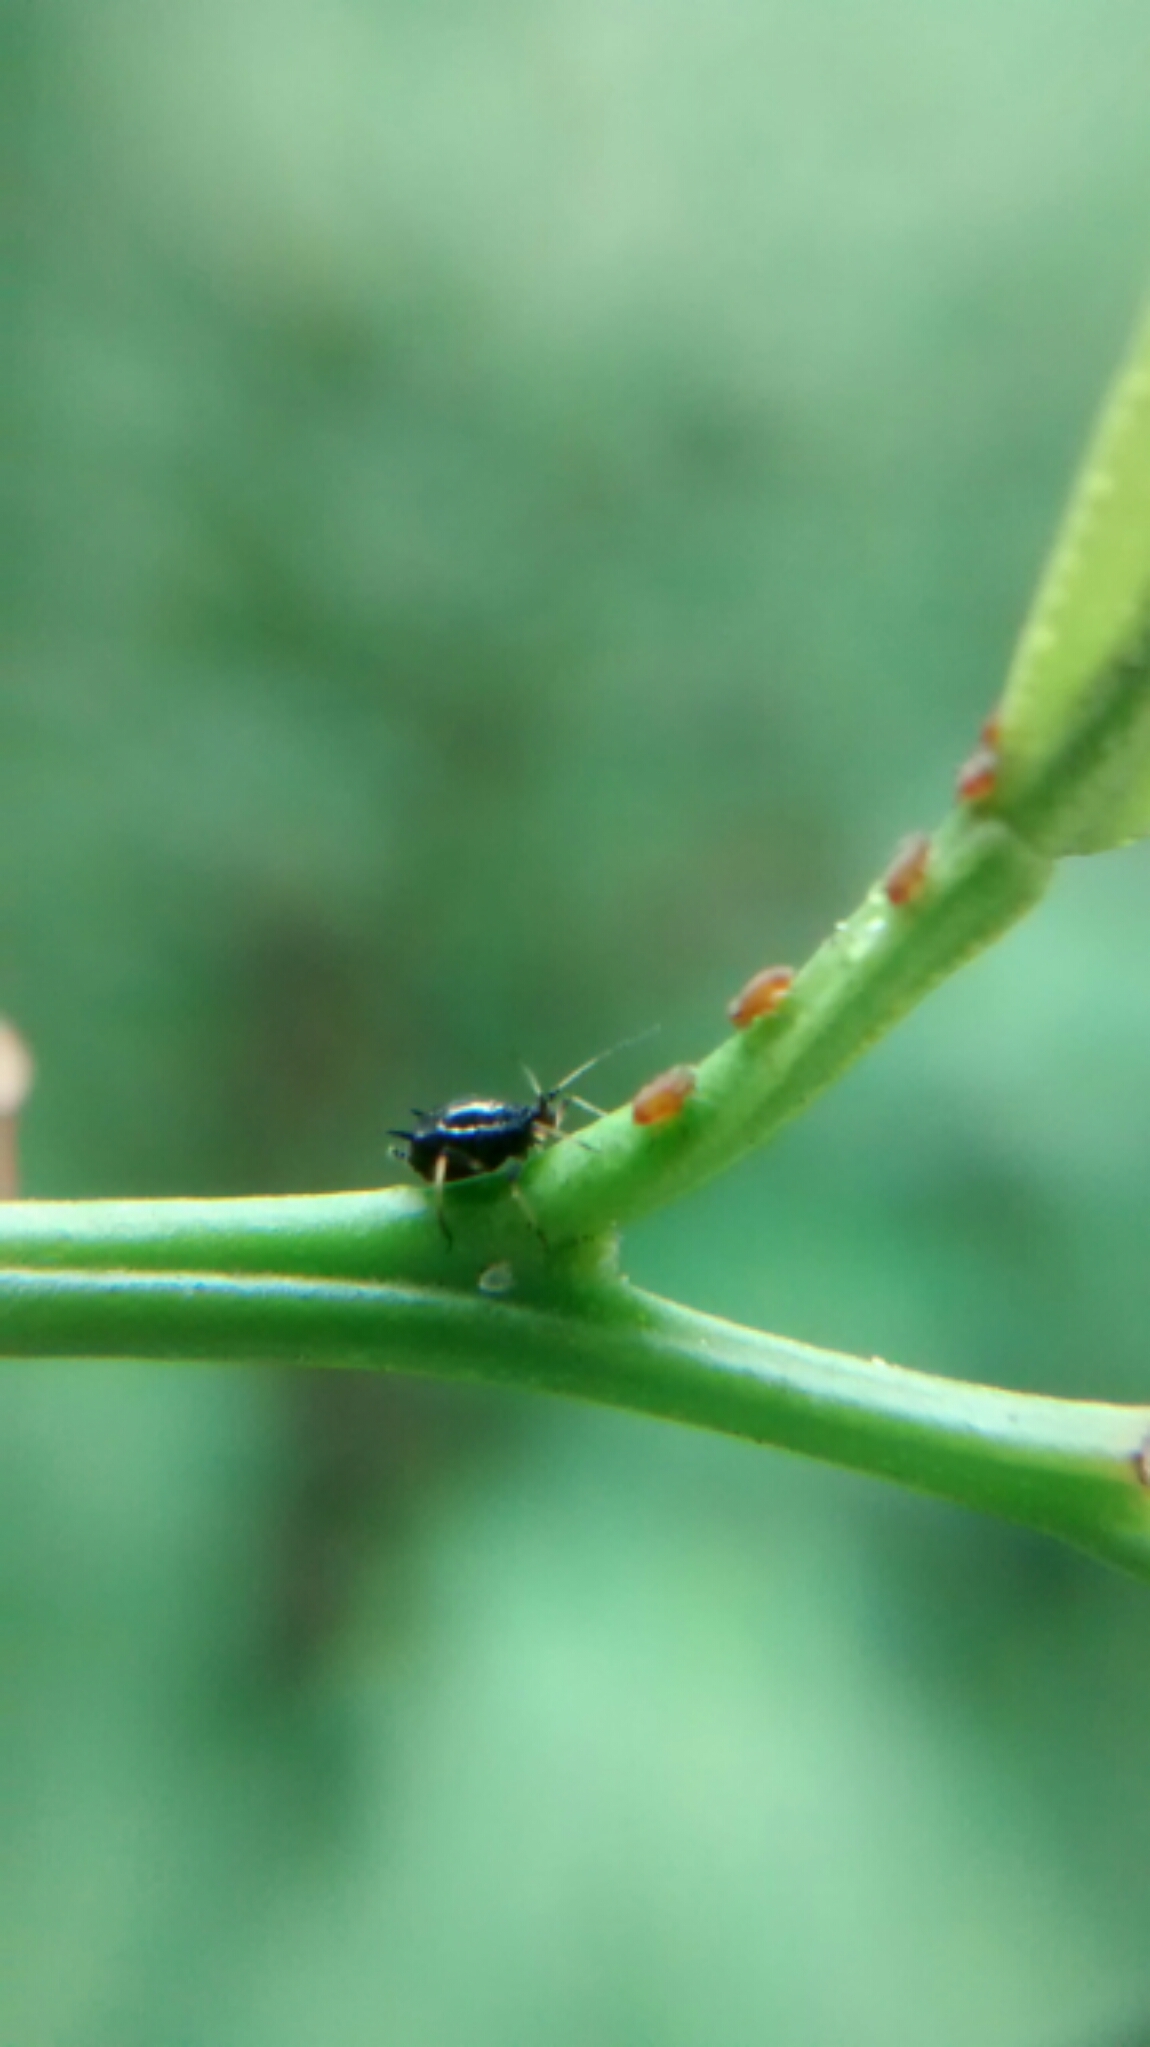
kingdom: Animalia
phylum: Arthropoda
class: Insecta
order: Hemiptera
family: Aphididae
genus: Aphis
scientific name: Aphis citricidus
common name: Brown citrus aphid
